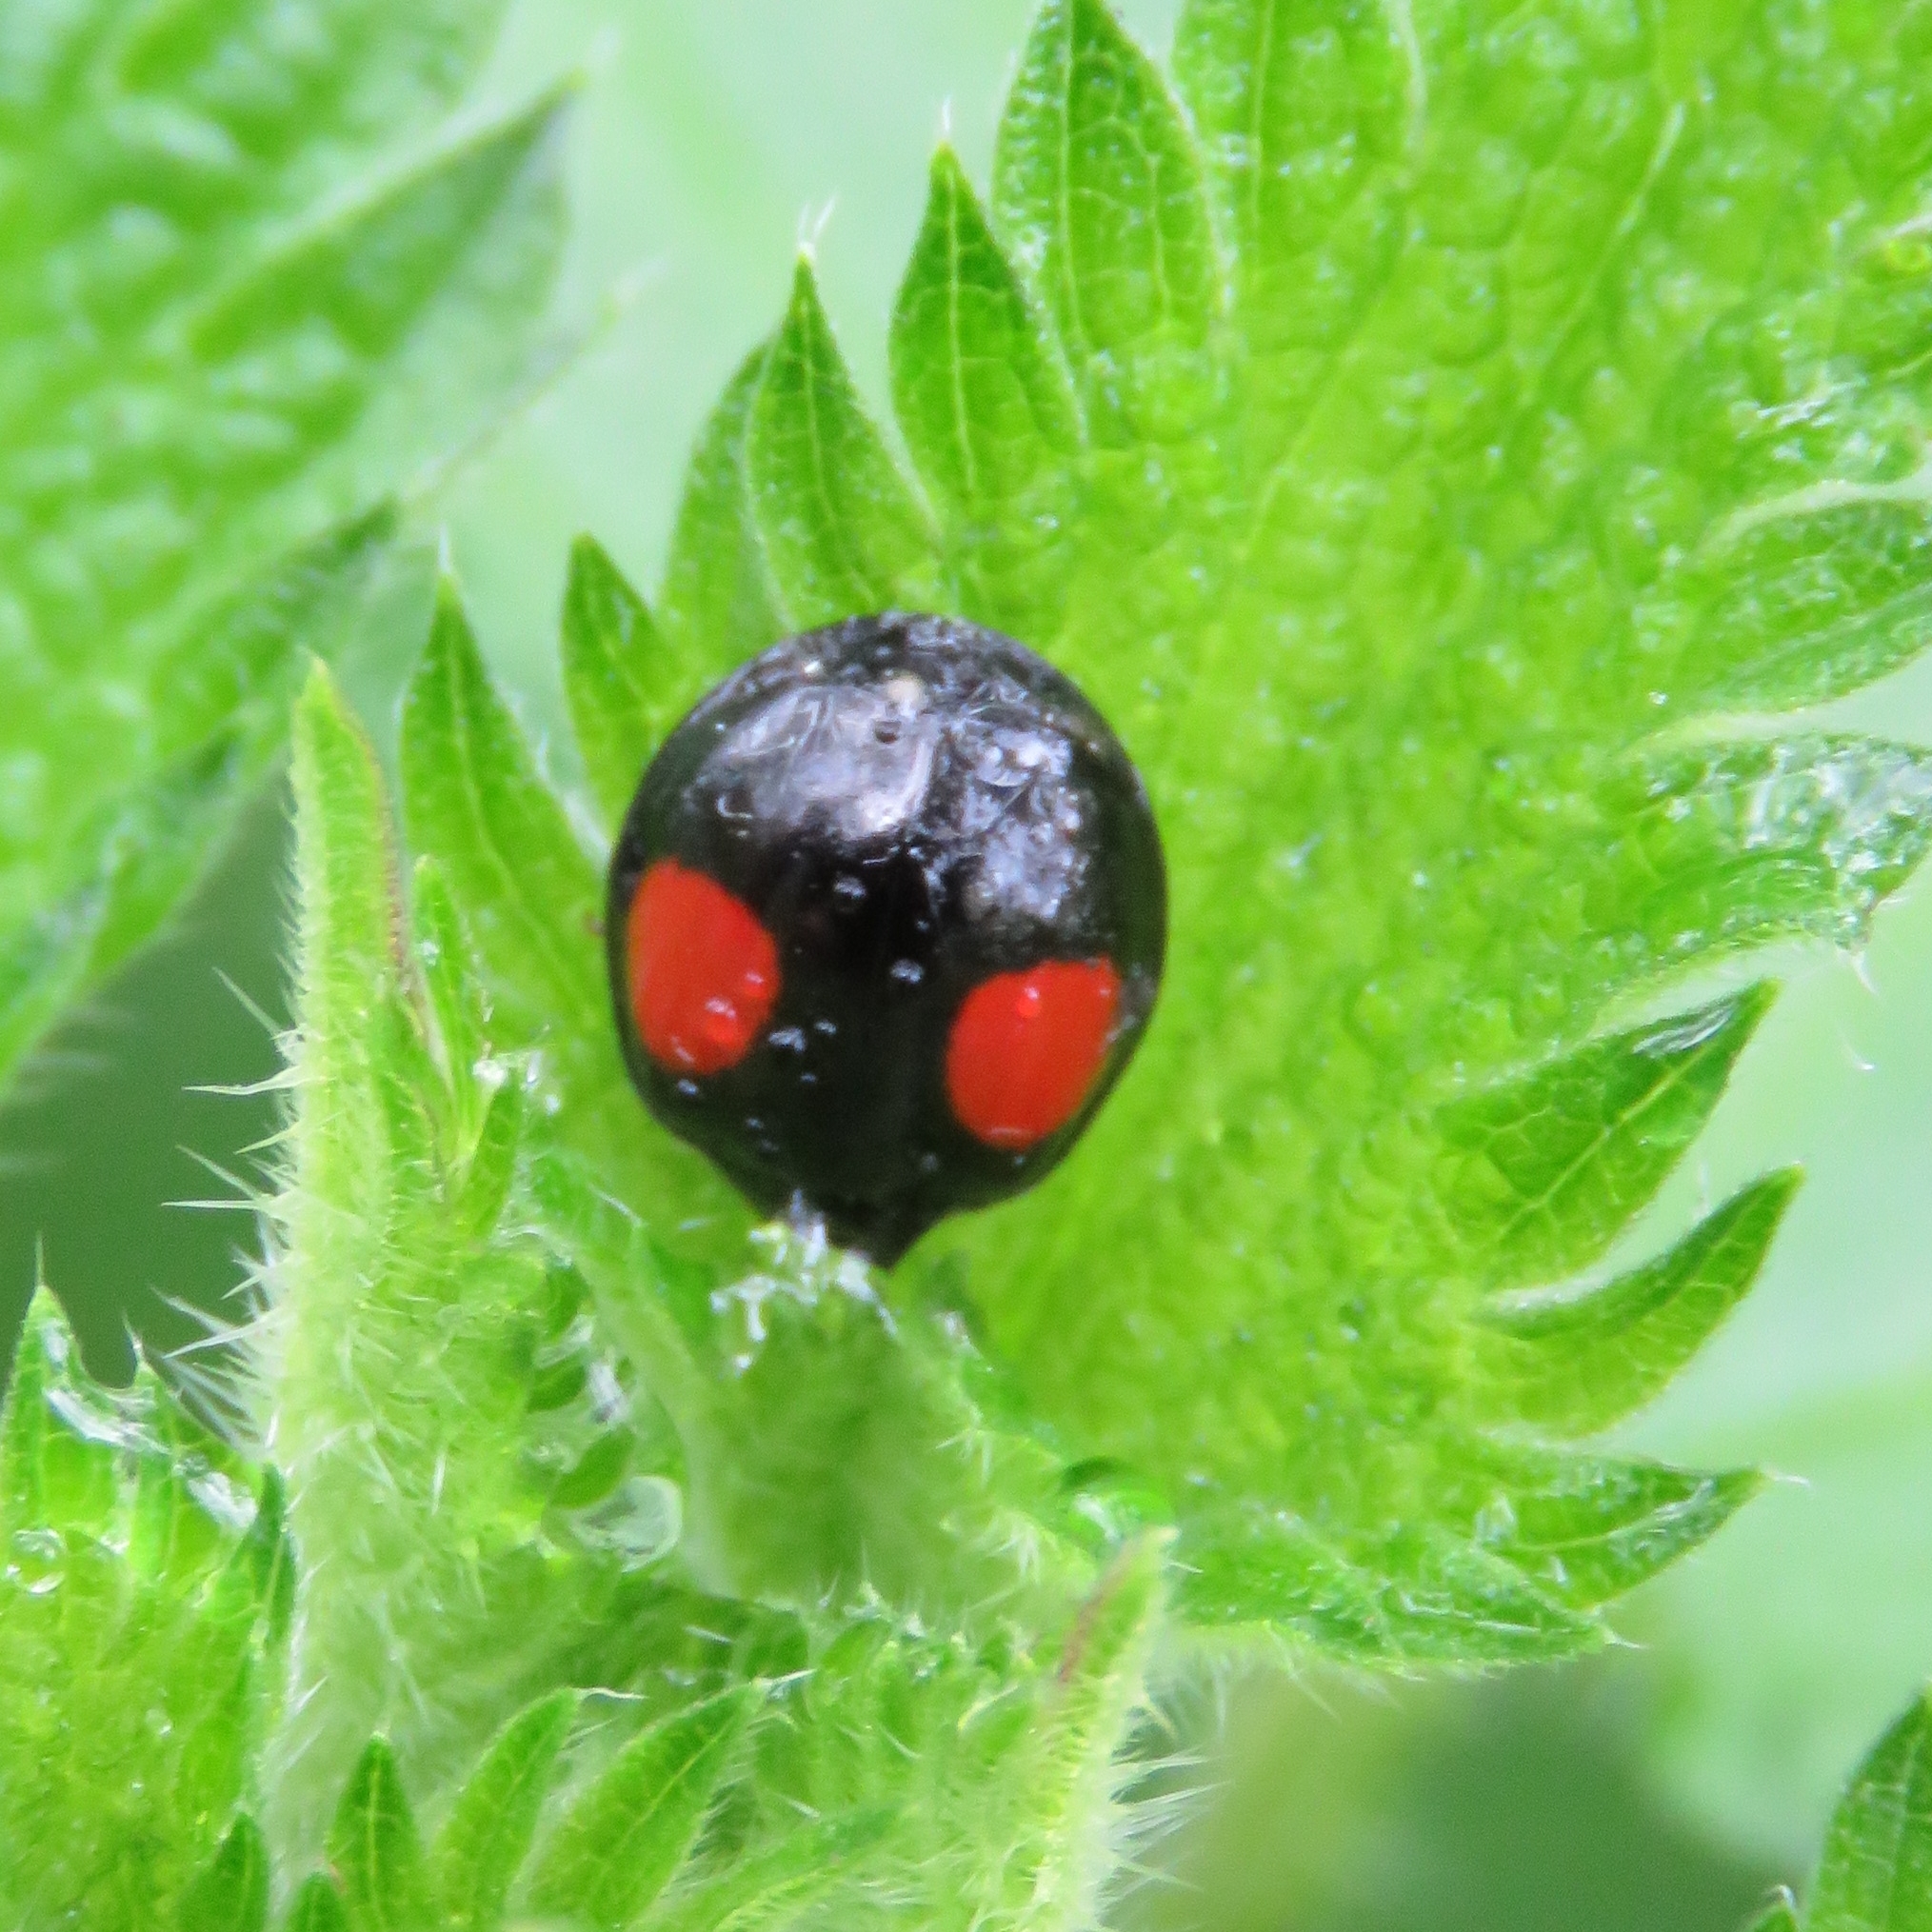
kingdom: Animalia
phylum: Arthropoda
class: Insecta
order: Coleoptera
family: Coccinellidae
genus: Harmonia
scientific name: Harmonia axyridis
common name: Harlequin ladybird
